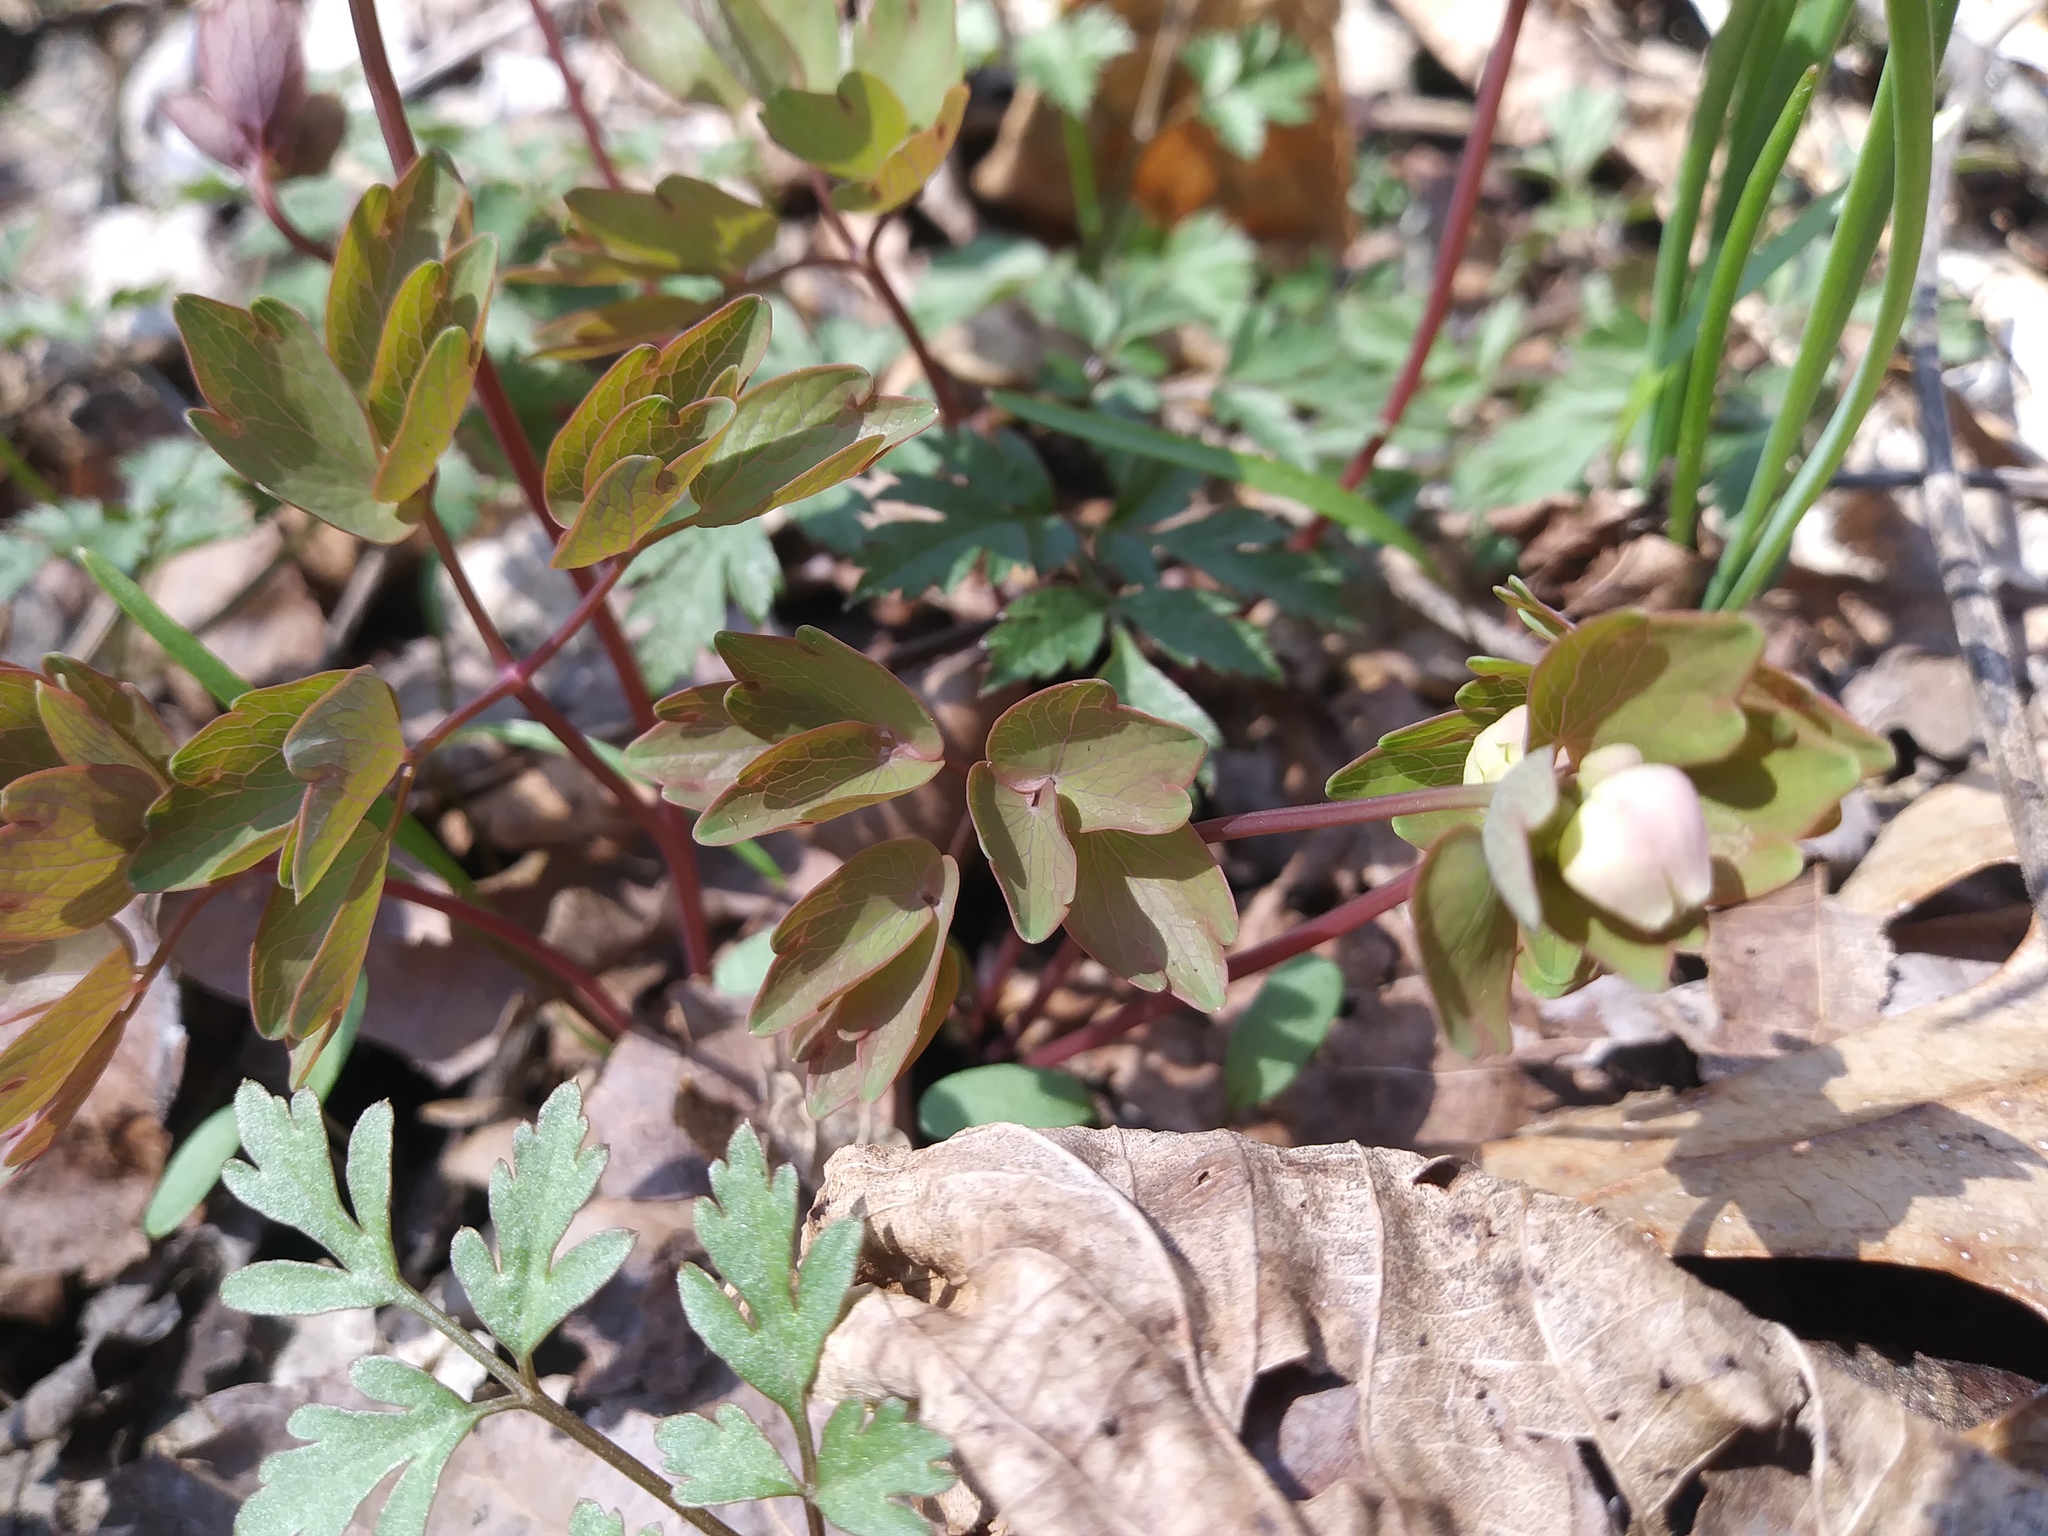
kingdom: Plantae
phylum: Tracheophyta
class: Magnoliopsida
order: Ranunculales
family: Ranunculaceae
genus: Thalictrum
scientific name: Thalictrum thalictroides
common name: Rue-anemone
